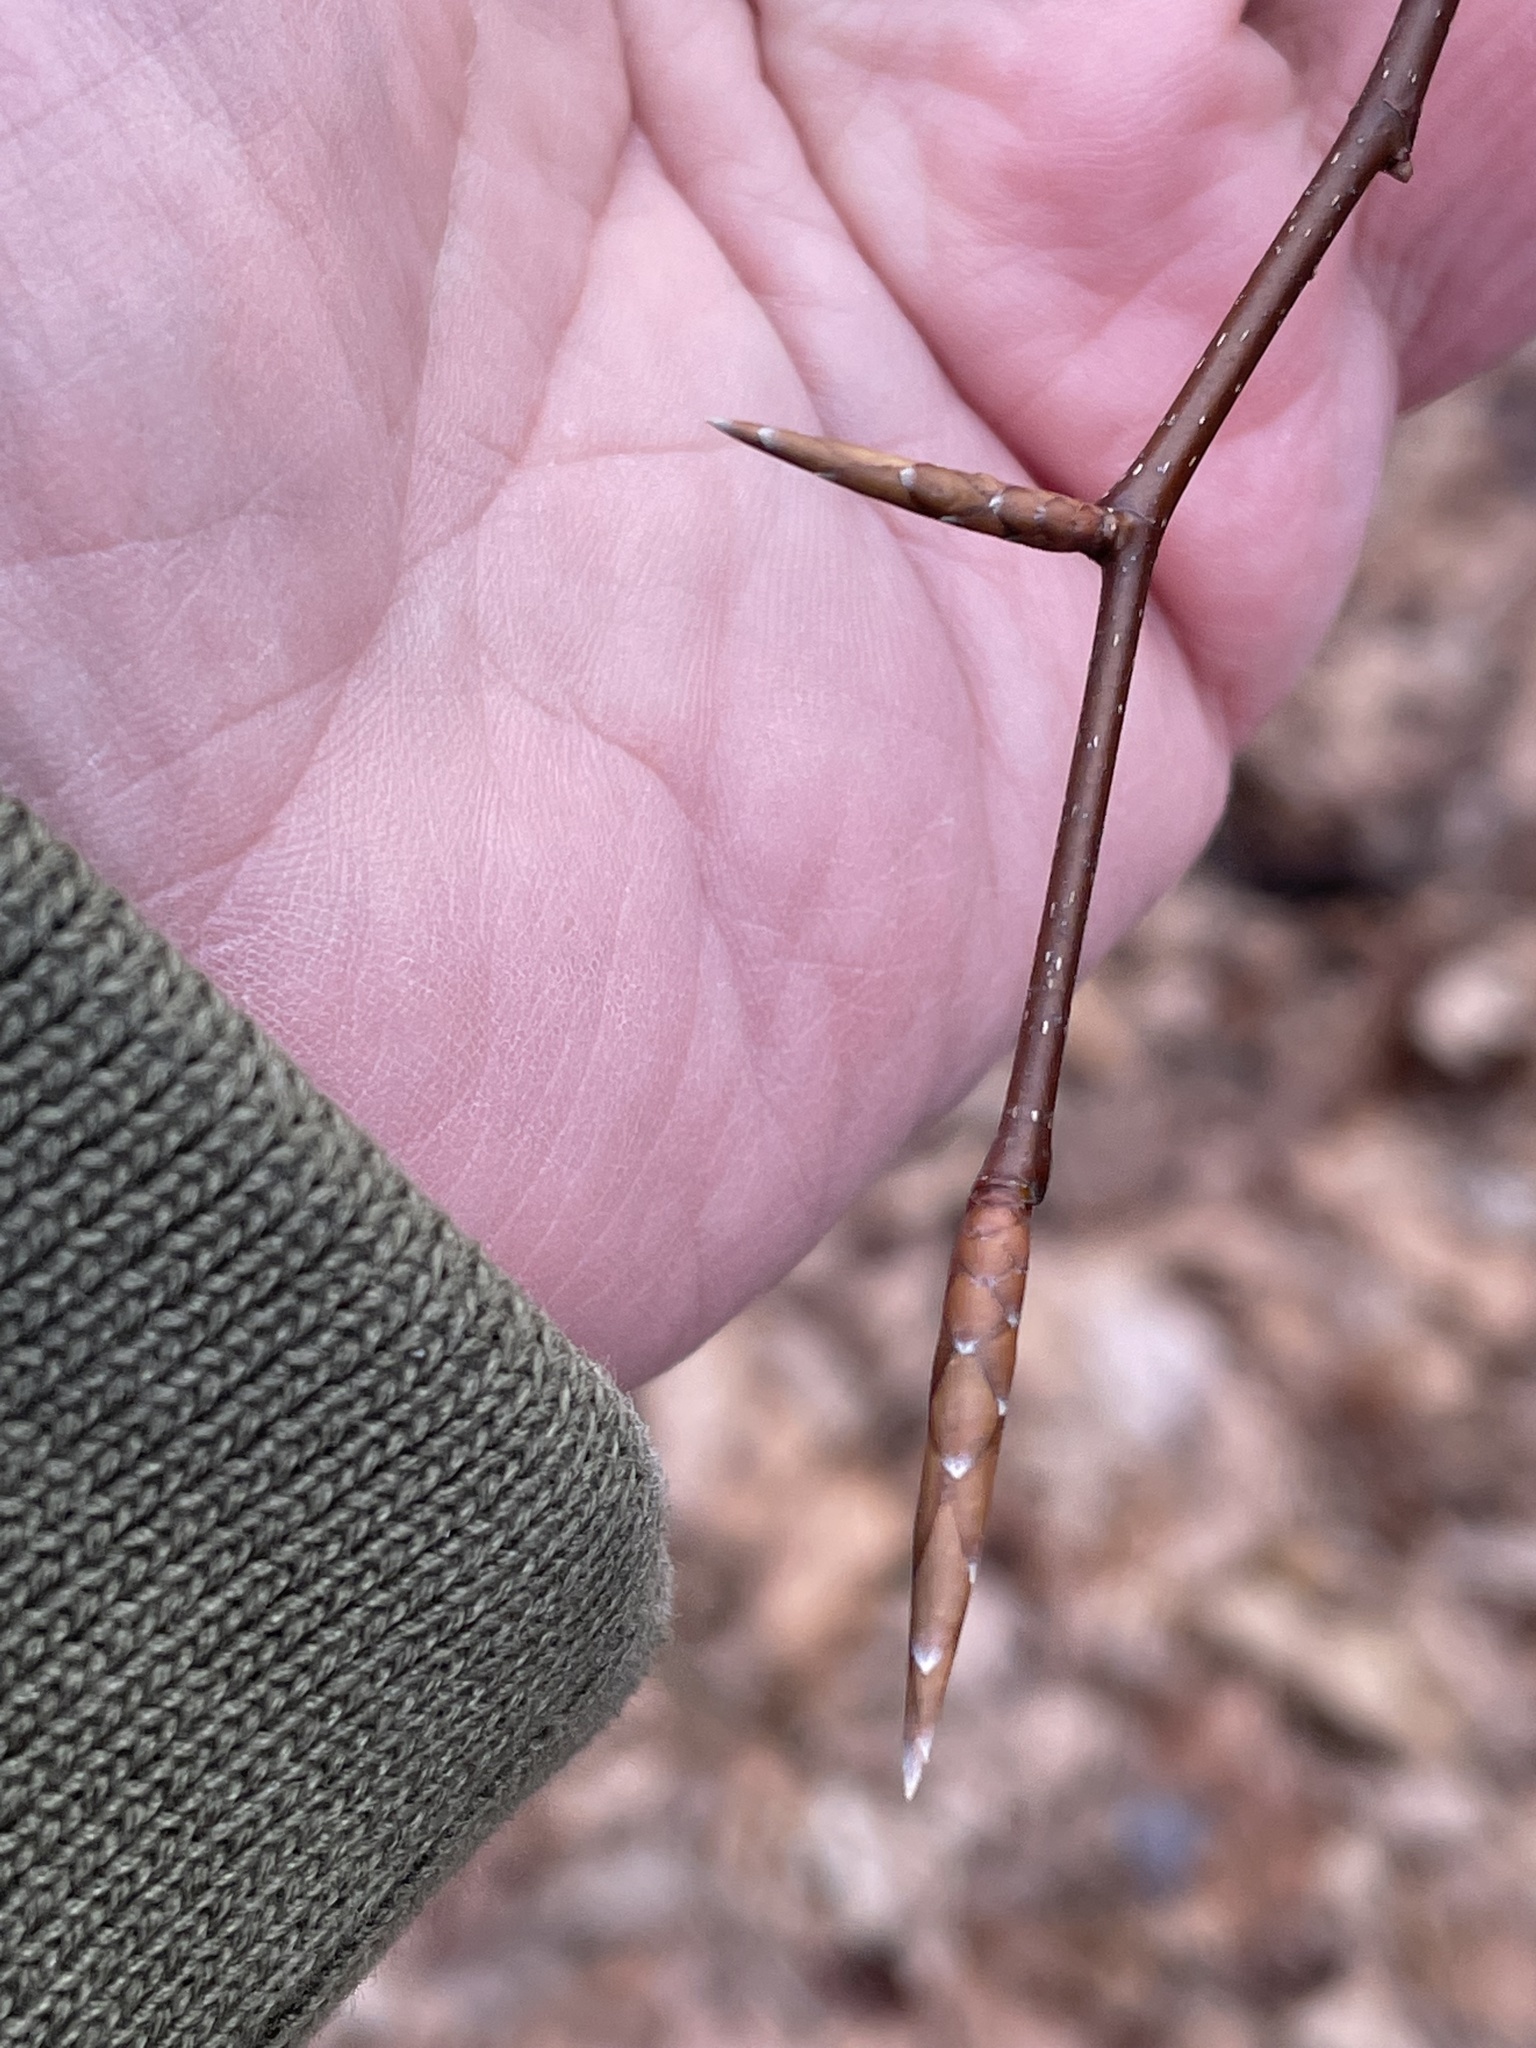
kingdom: Plantae
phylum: Tracheophyta
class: Magnoliopsida
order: Fagales
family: Fagaceae
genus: Fagus
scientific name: Fagus grandifolia
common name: American beech
